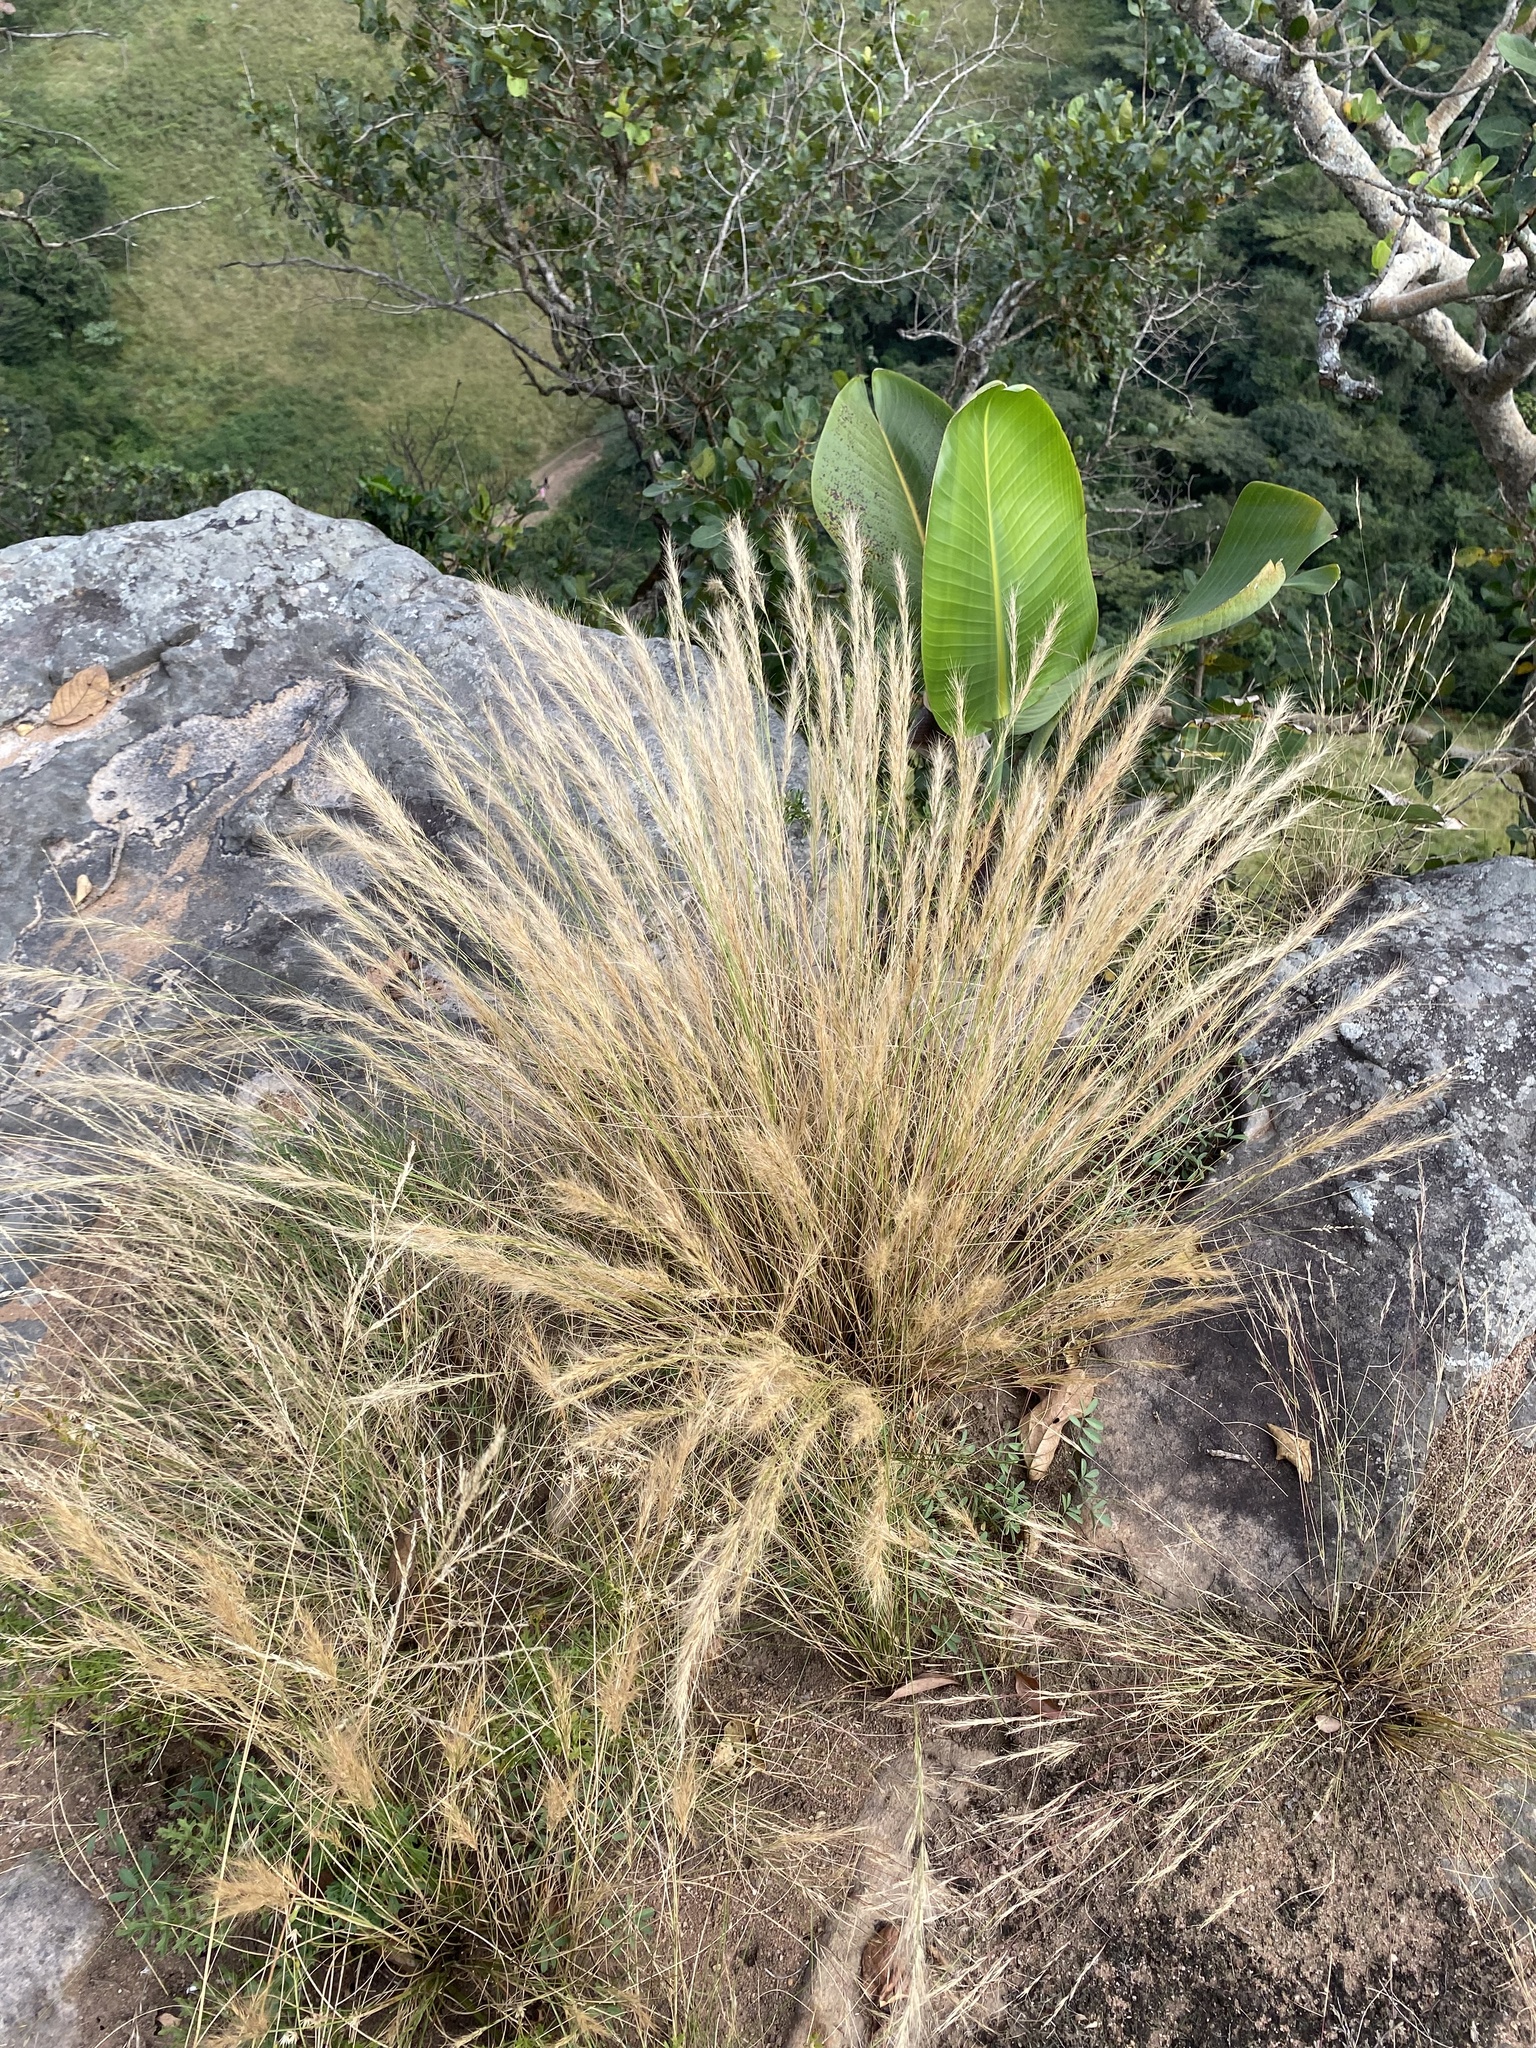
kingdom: Plantae
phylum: Tracheophyta
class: Liliopsida
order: Poales
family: Poaceae
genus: Aristida
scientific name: Aristida junciformis
